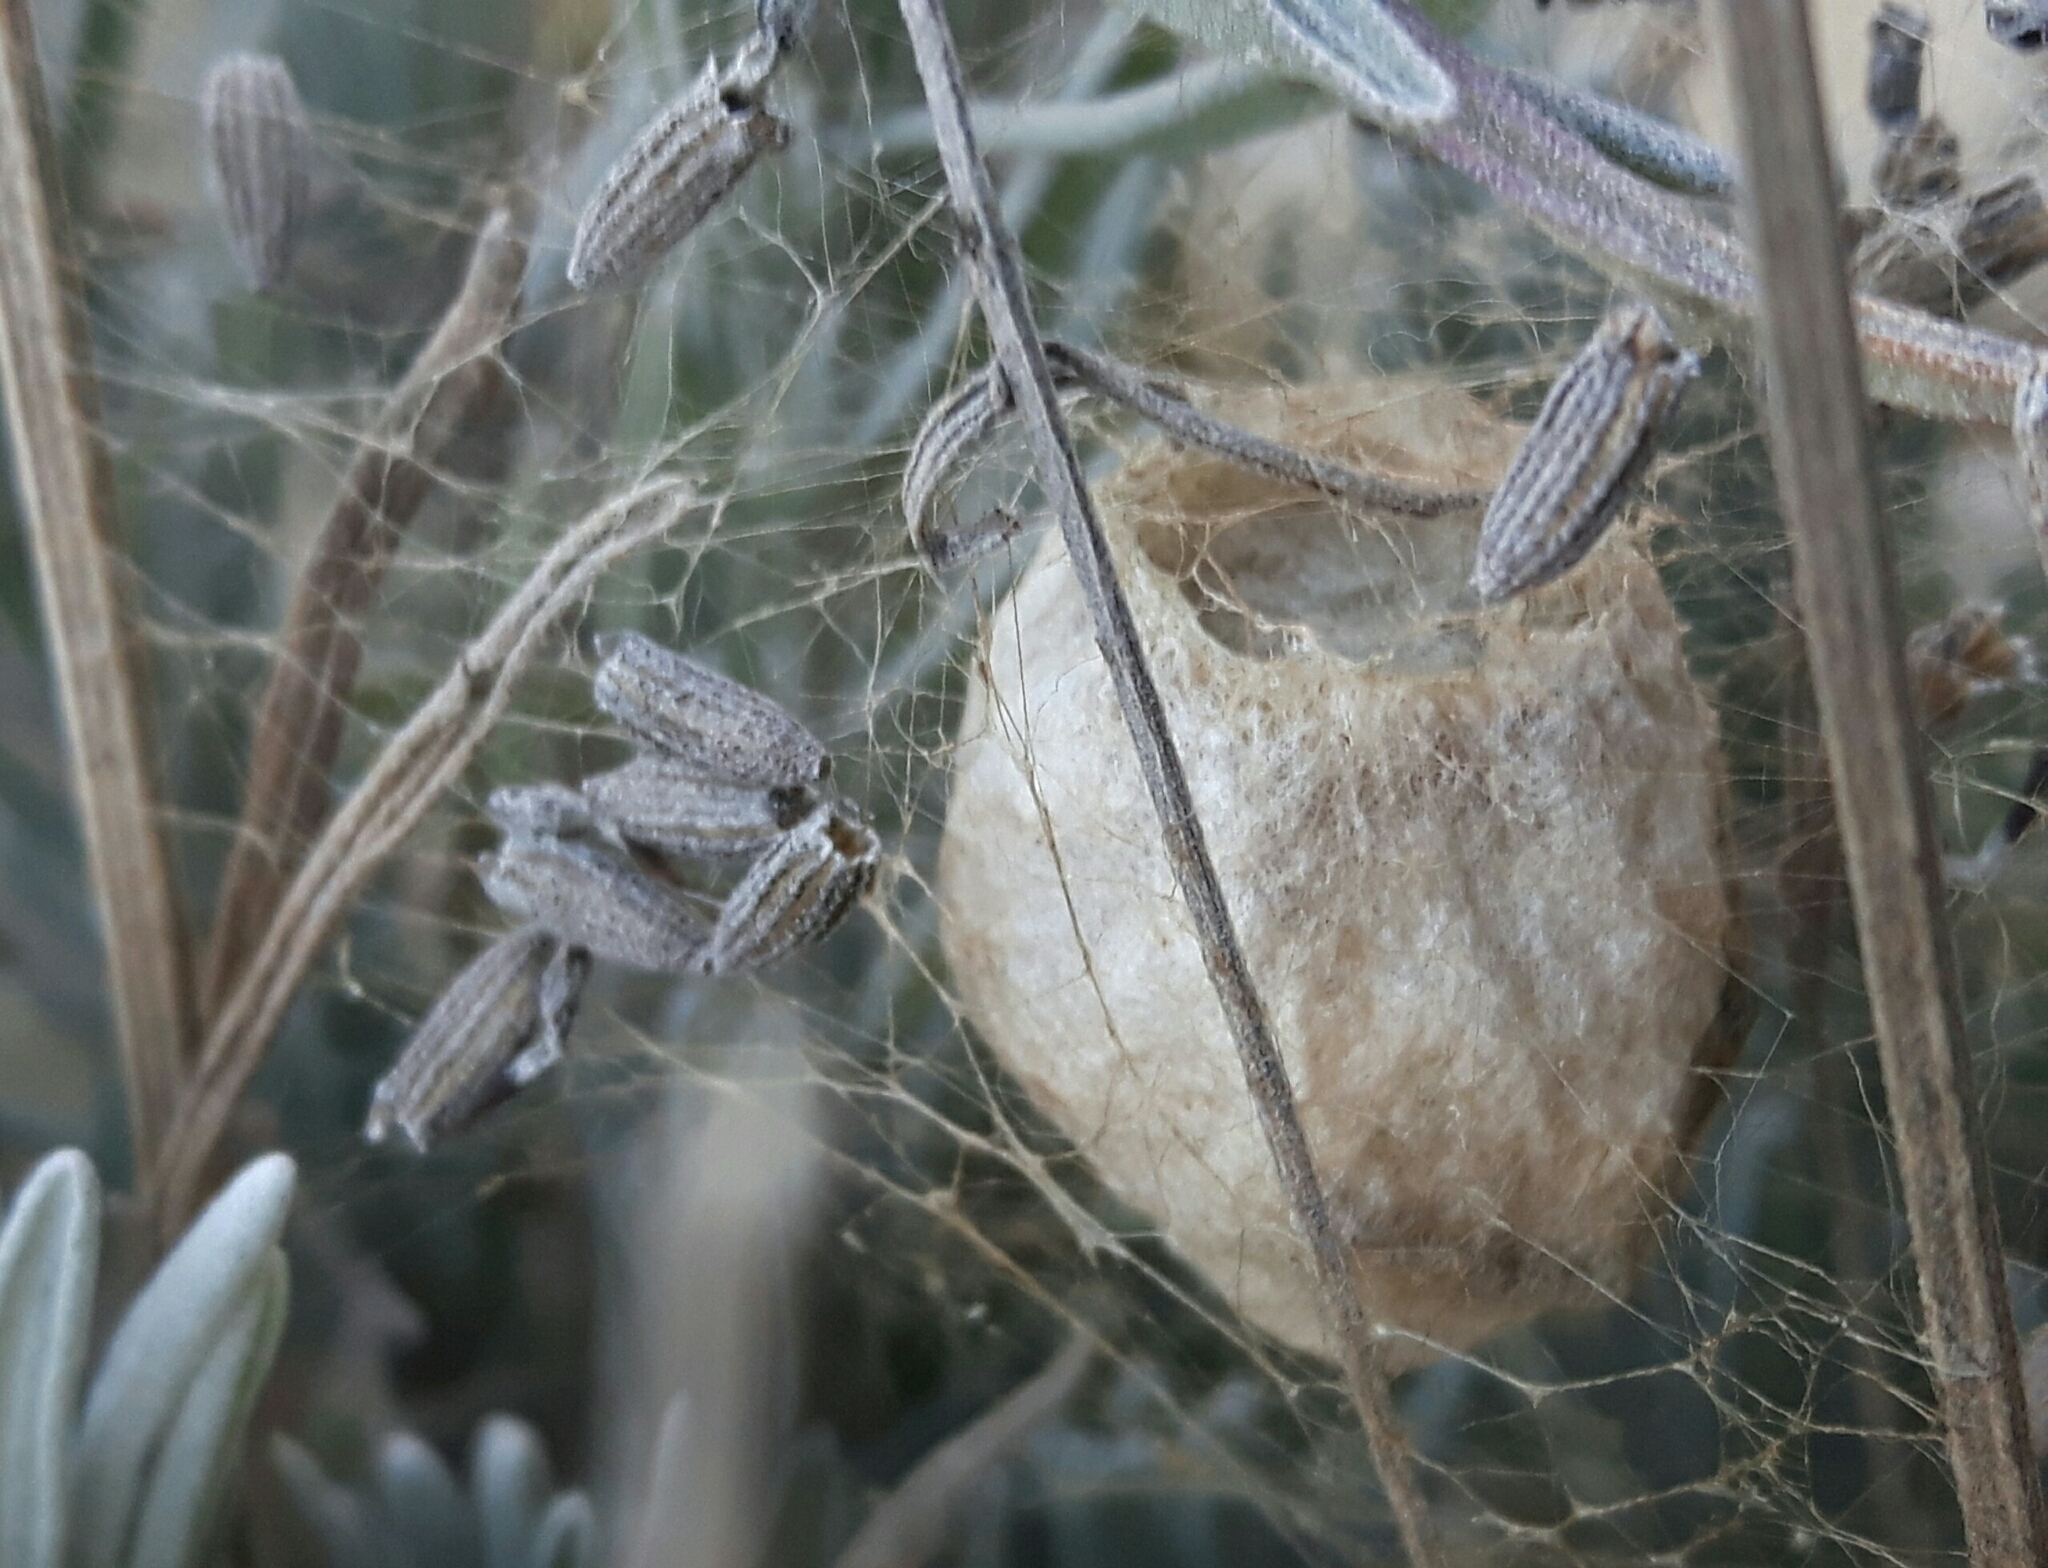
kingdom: Animalia
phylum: Arthropoda
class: Arachnida
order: Araneae
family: Araneidae
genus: Argiope
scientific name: Argiope bruennichi
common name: Wasp spider
